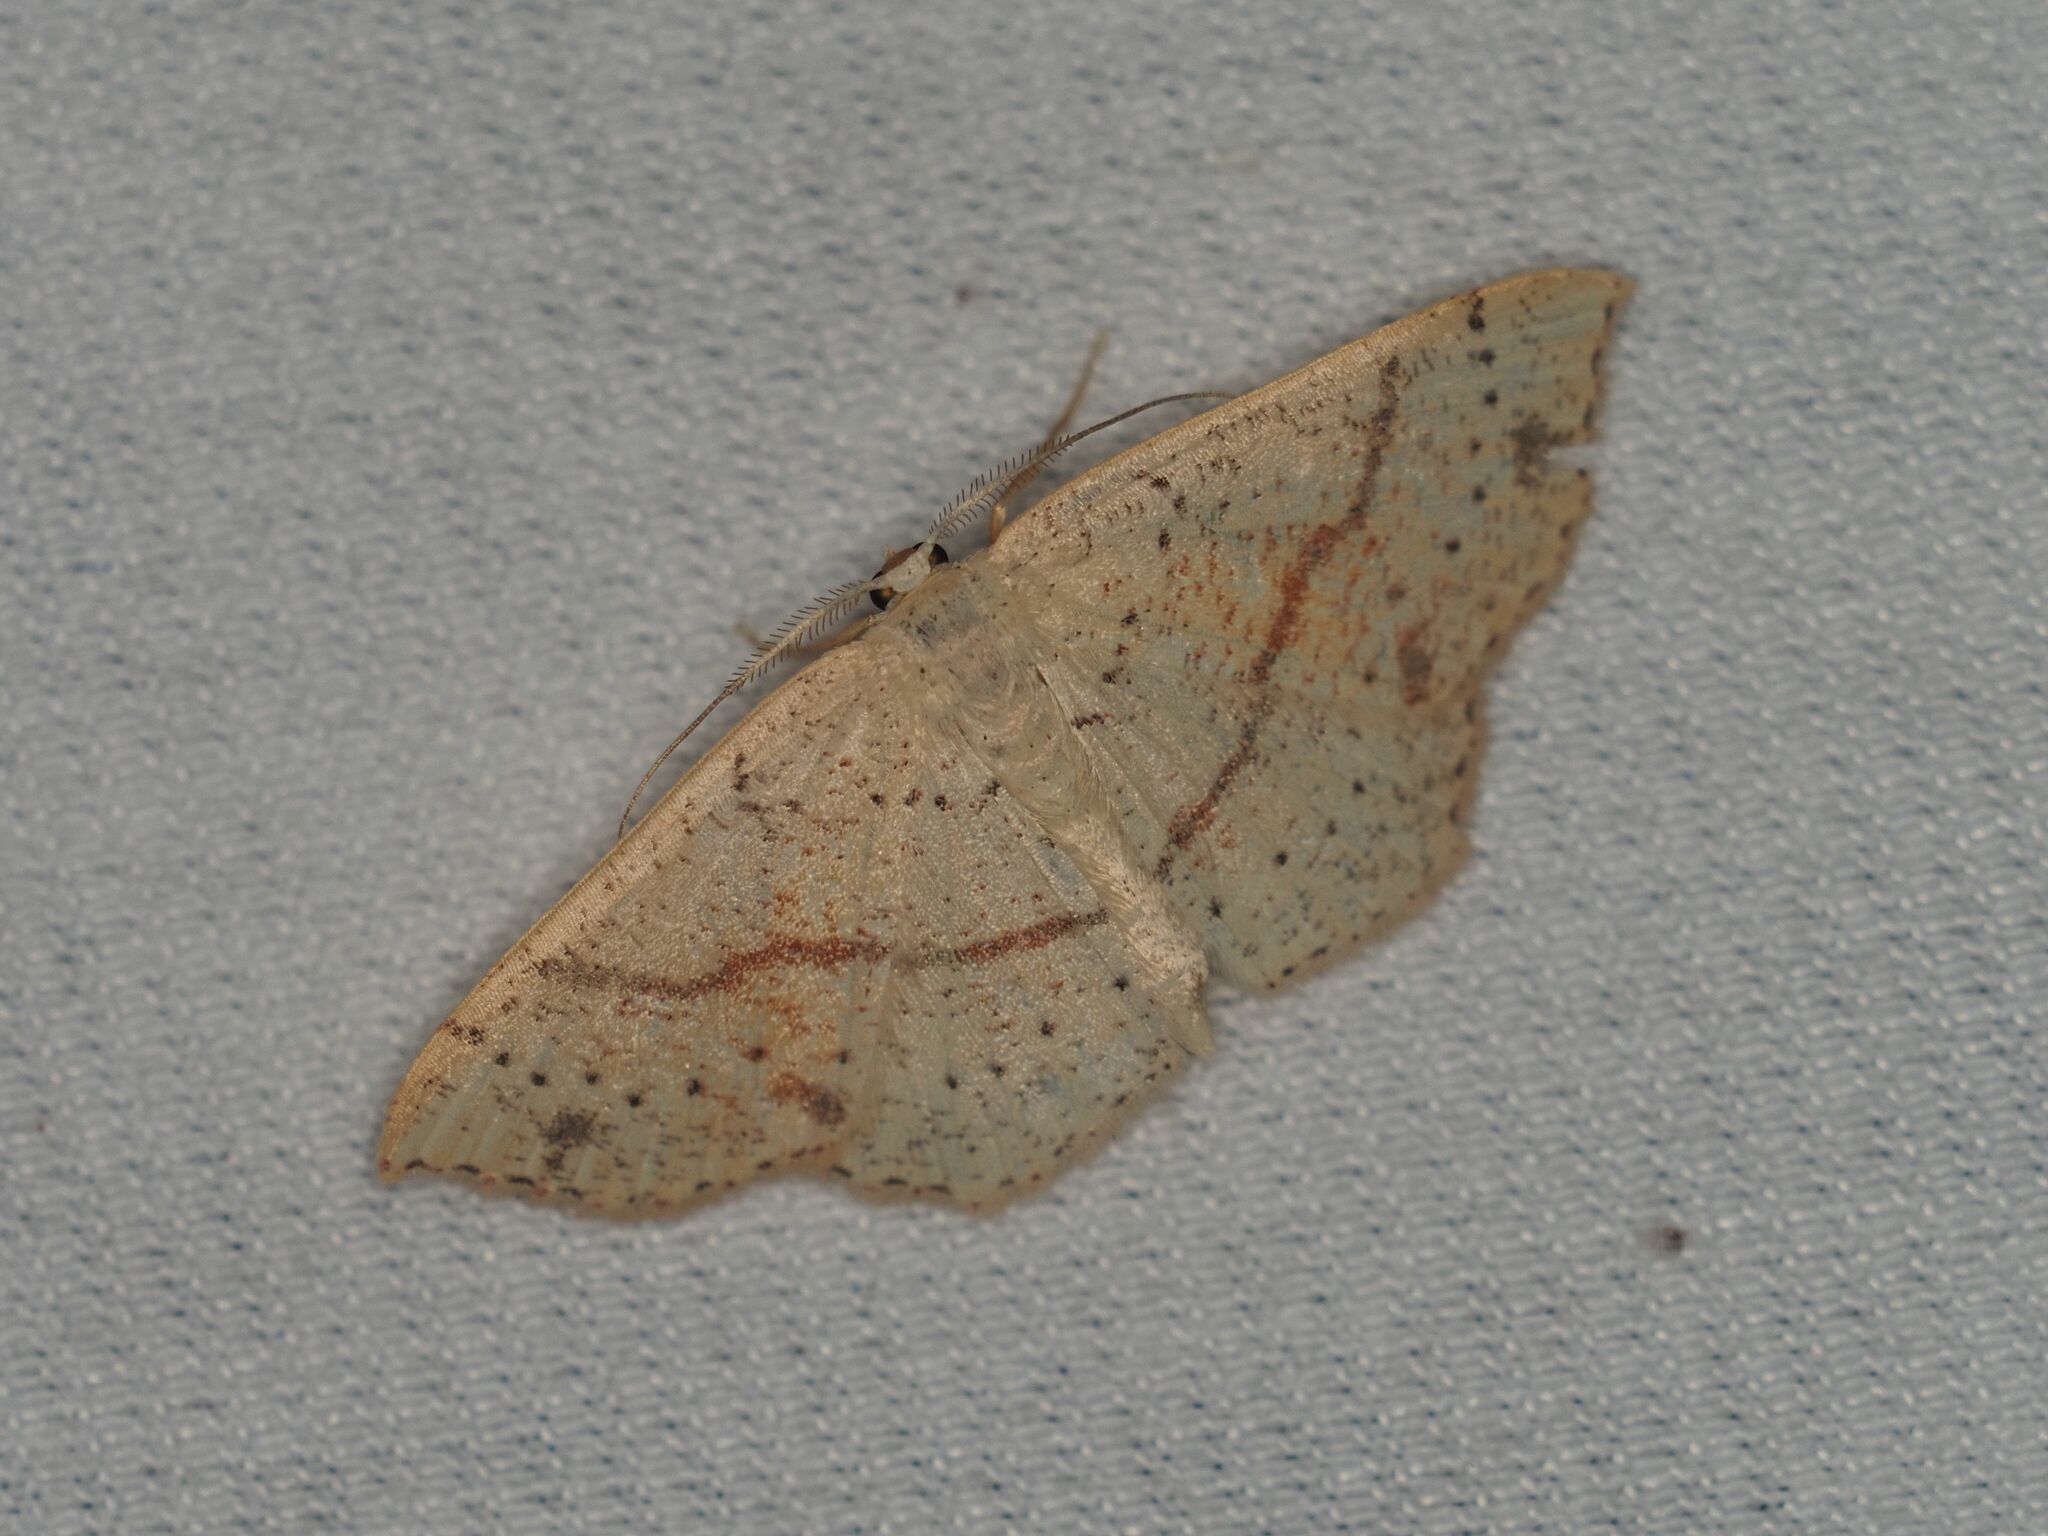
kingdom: Animalia
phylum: Arthropoda
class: Insecta
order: Lepidoptera
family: Geometridae
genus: Cyclophora
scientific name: Cyclophora punctaria
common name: Maiden's blush
